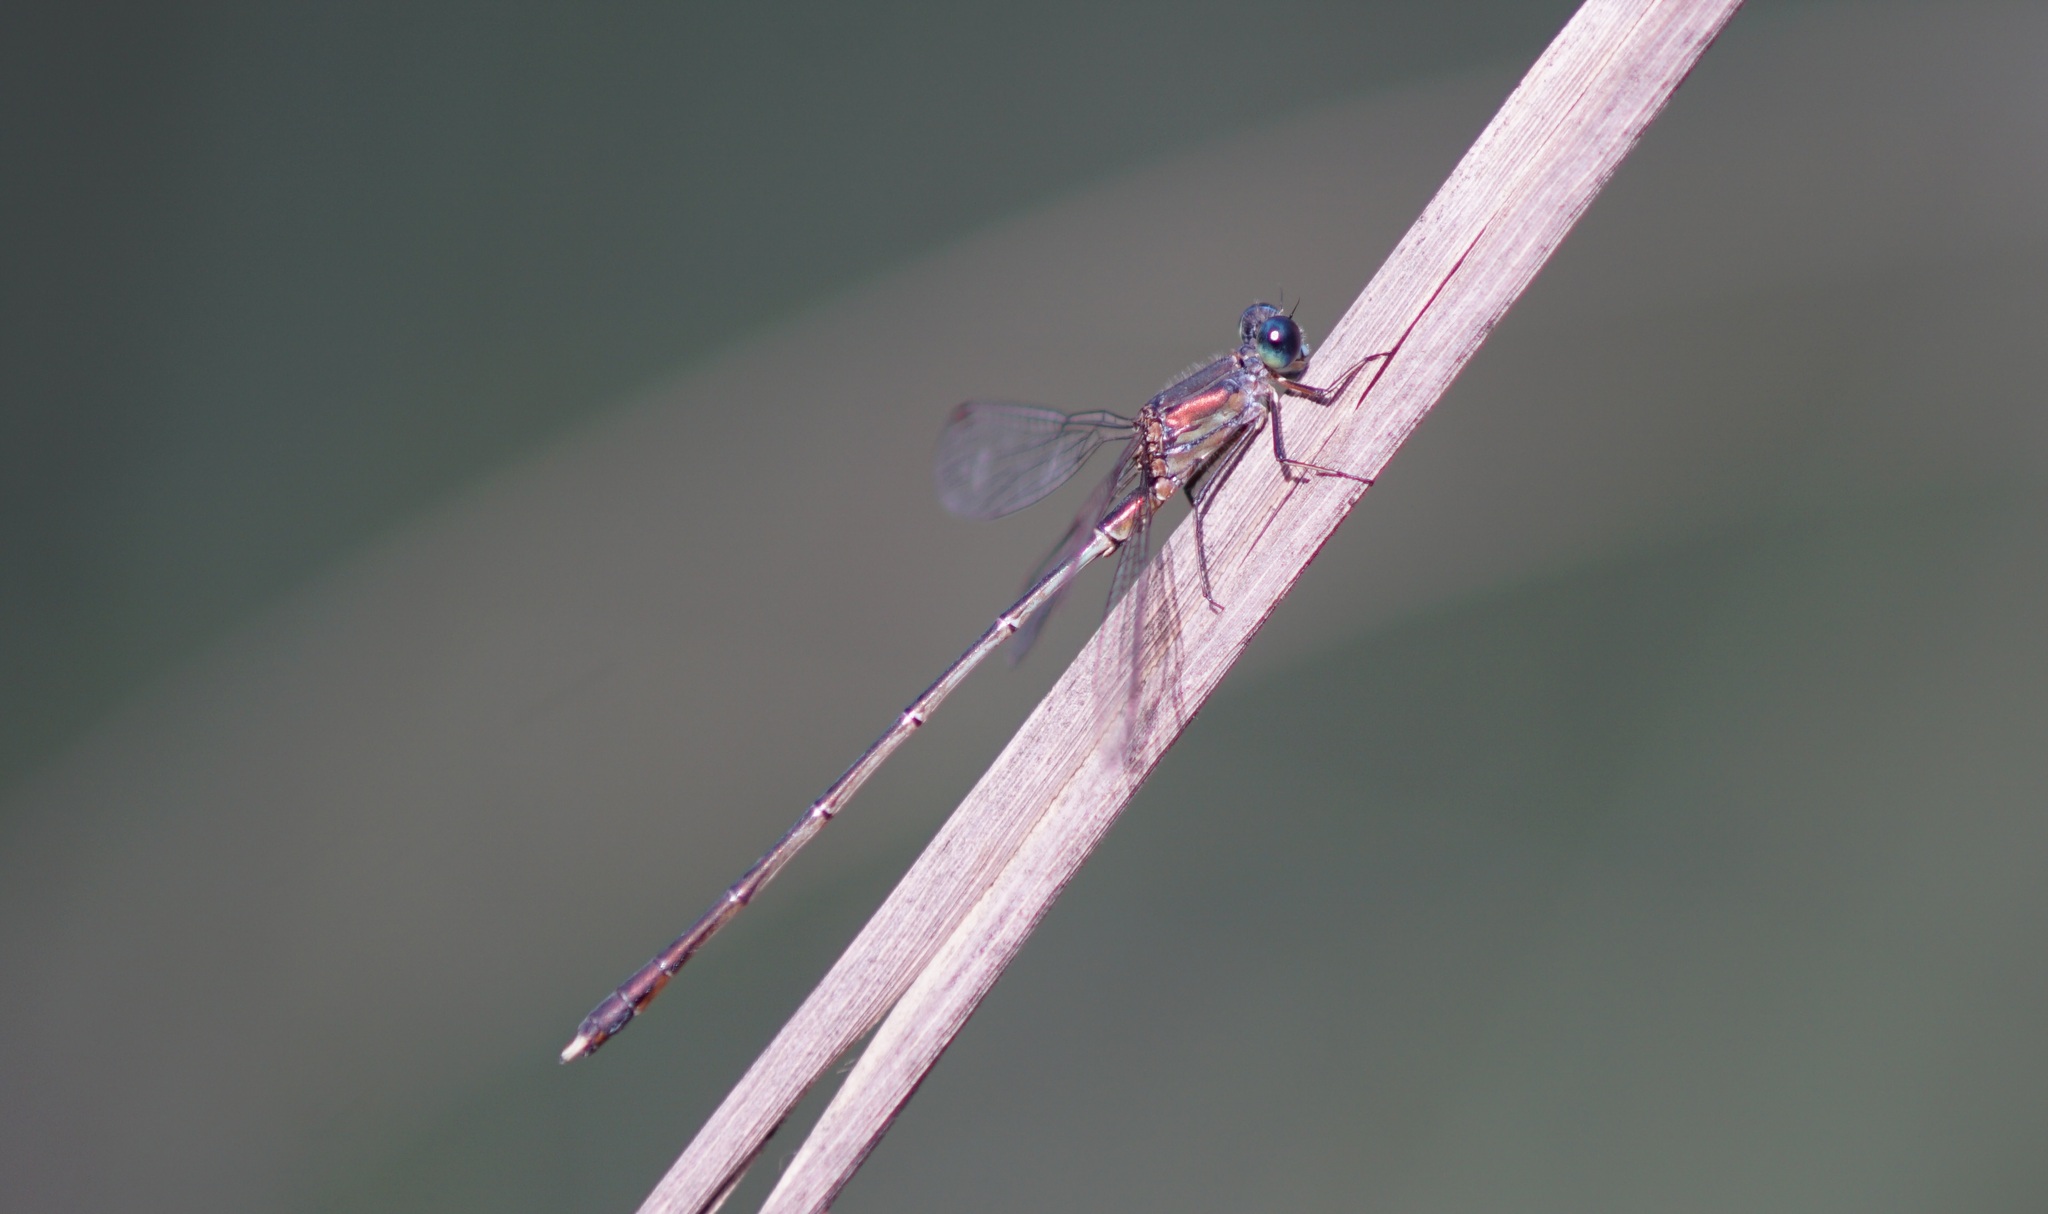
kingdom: Animalia
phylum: Arthropoda
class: Insecta
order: Odonata
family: Lestidae
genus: Chalcolestes
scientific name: Chalcolestes parvidens
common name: Eastern willow spreadwing
